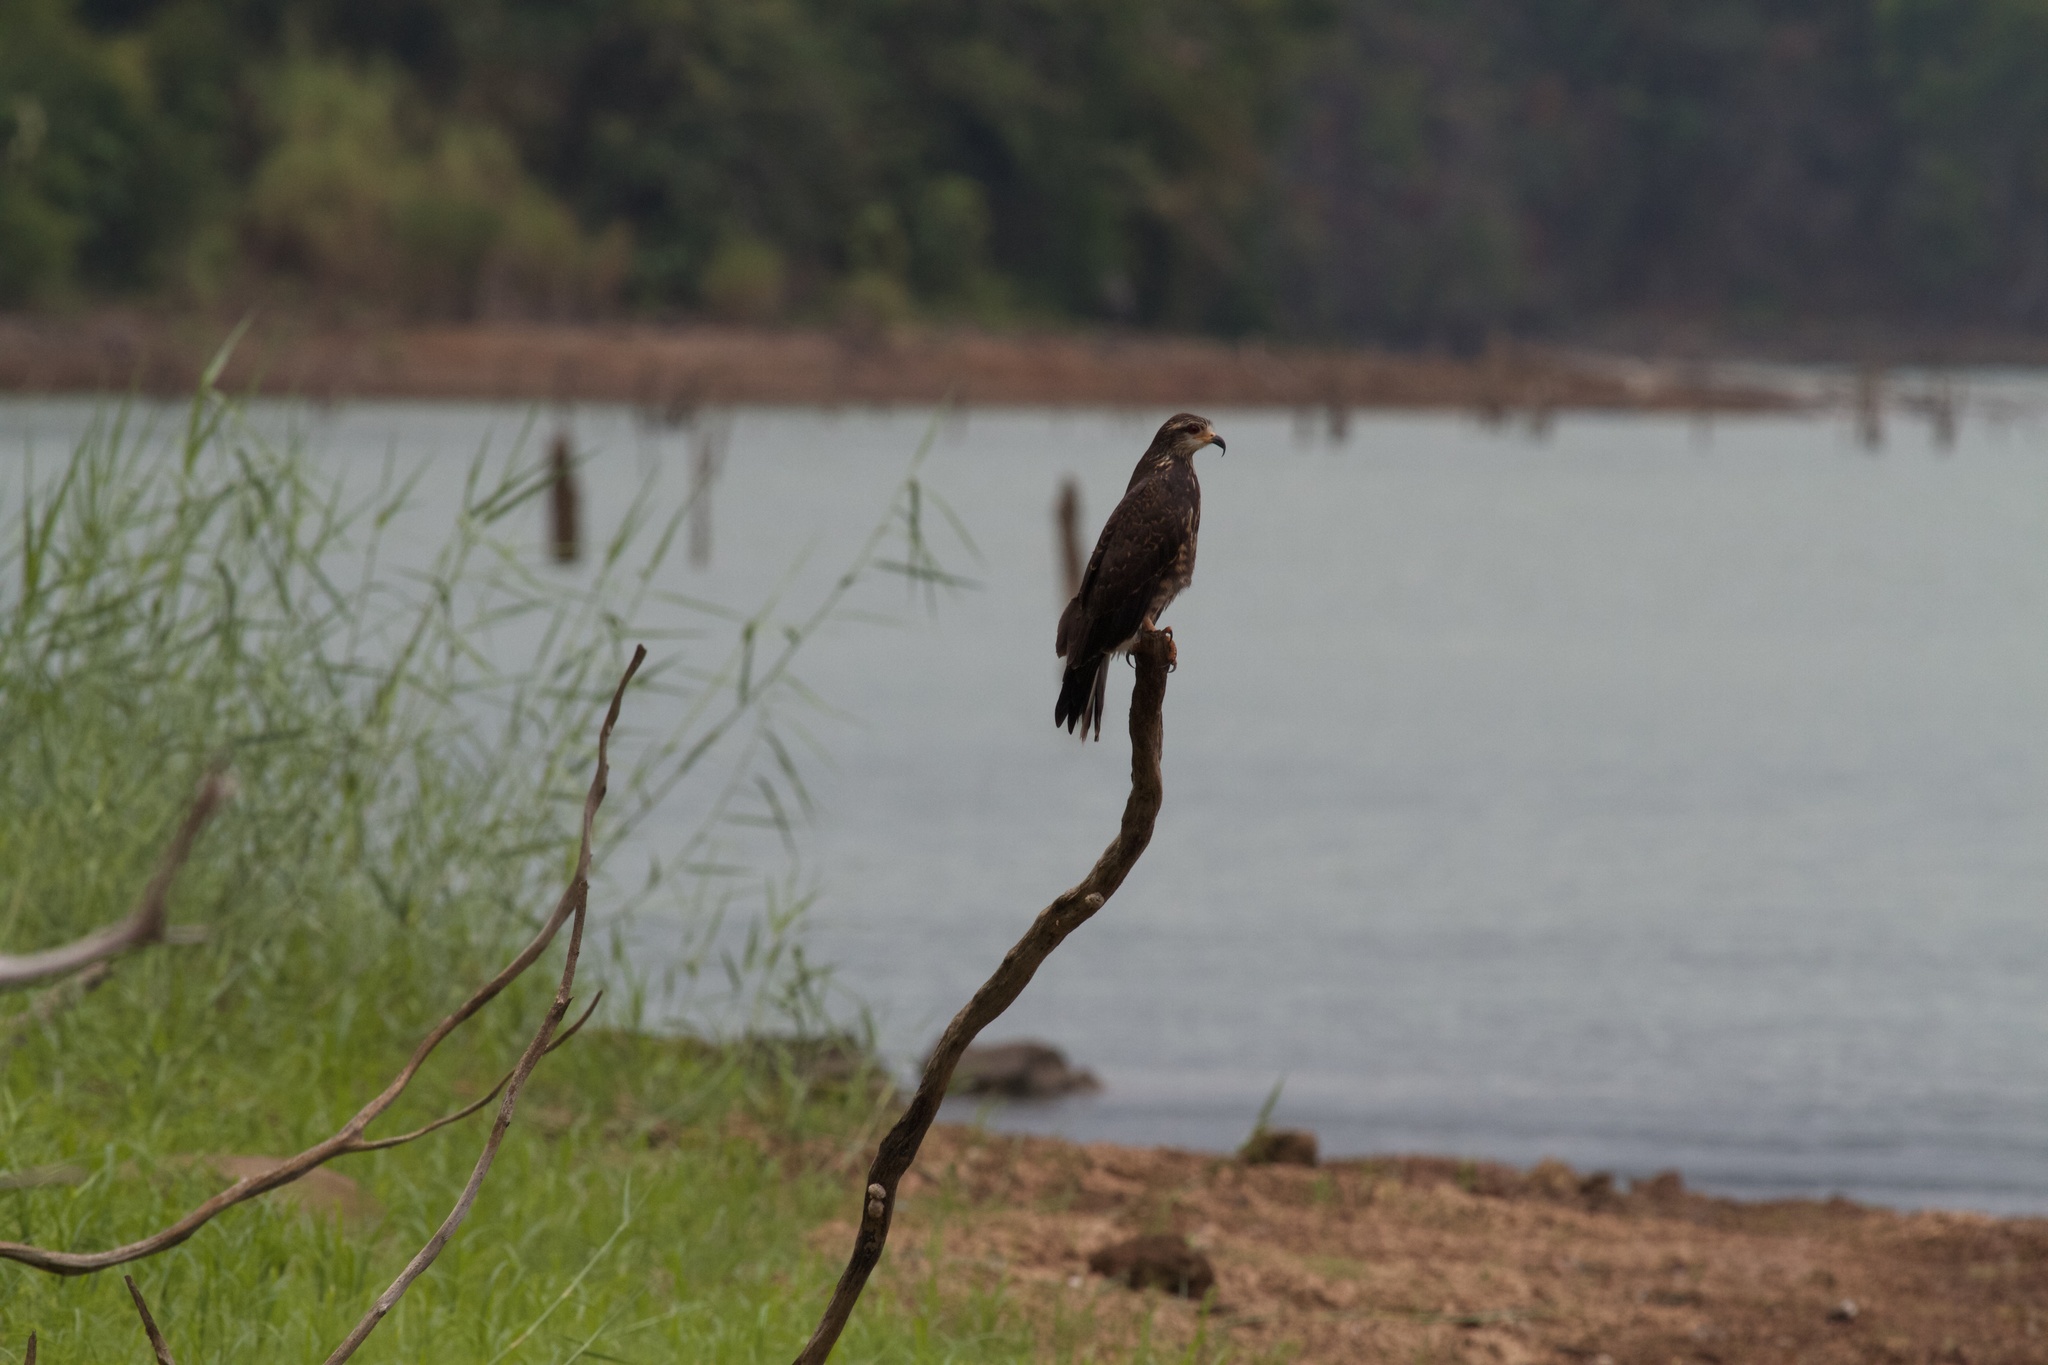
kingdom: Animalia
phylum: Chordata
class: Aves
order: Accipitriformes
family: Accipitridae
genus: Rostrhamus
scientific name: Rostrhamus sociabilis
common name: Snail kite
